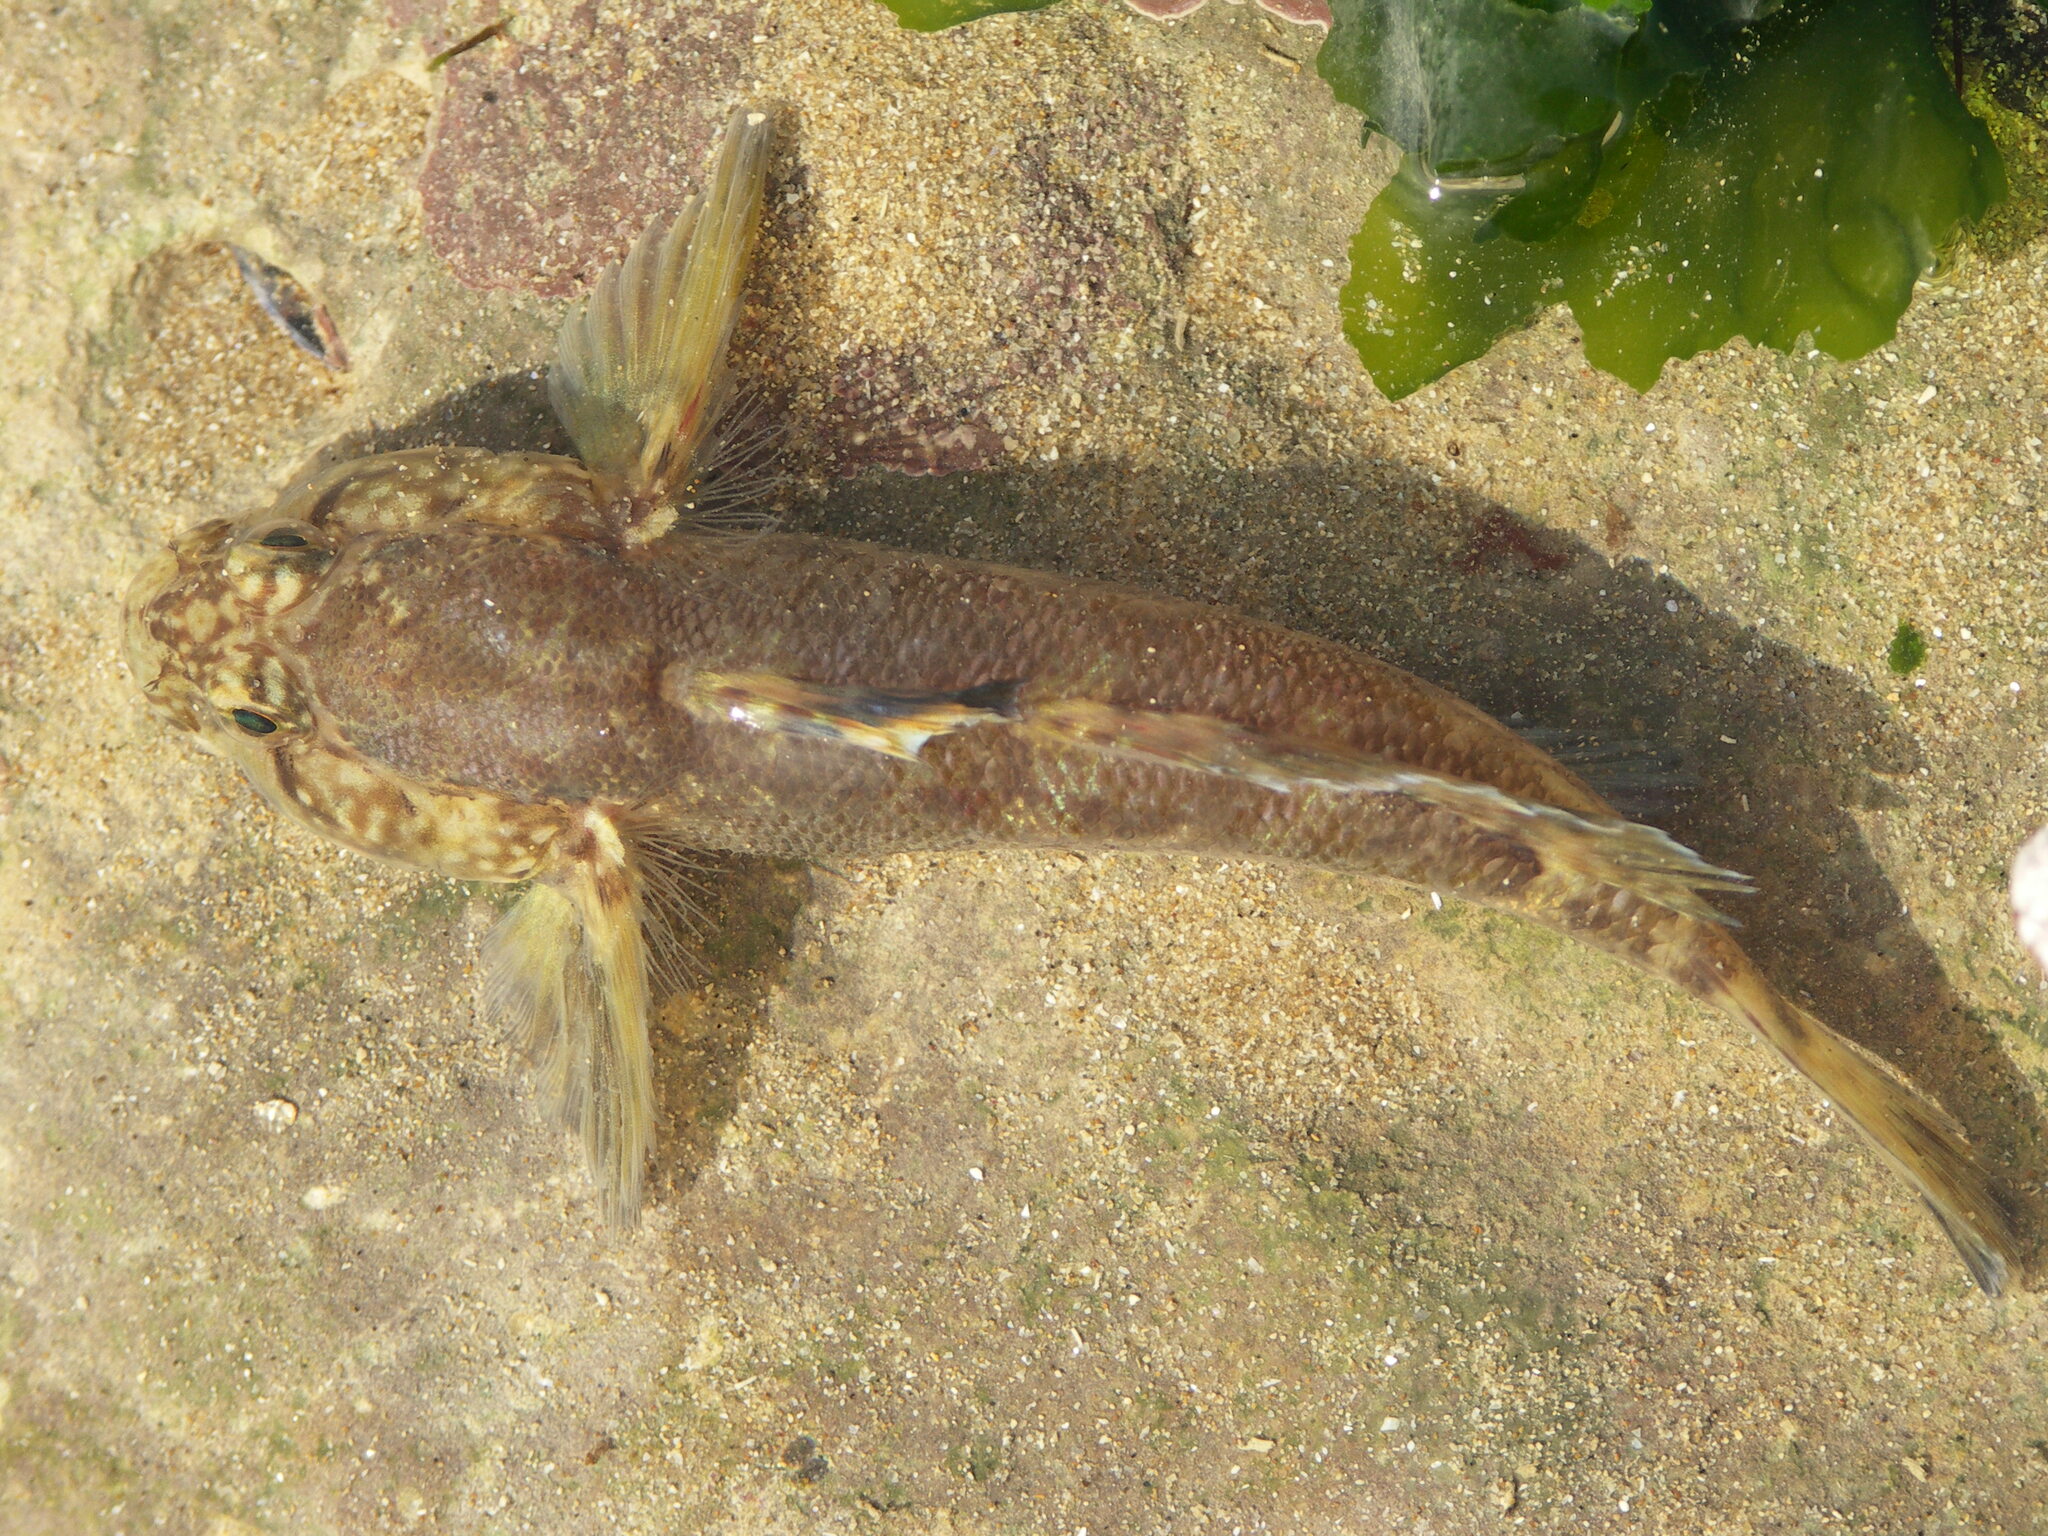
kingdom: Animalia
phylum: Chordata
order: Perciformes
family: Gobiidae
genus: Gobius
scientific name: Gobius paganellus
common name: Rock goby
